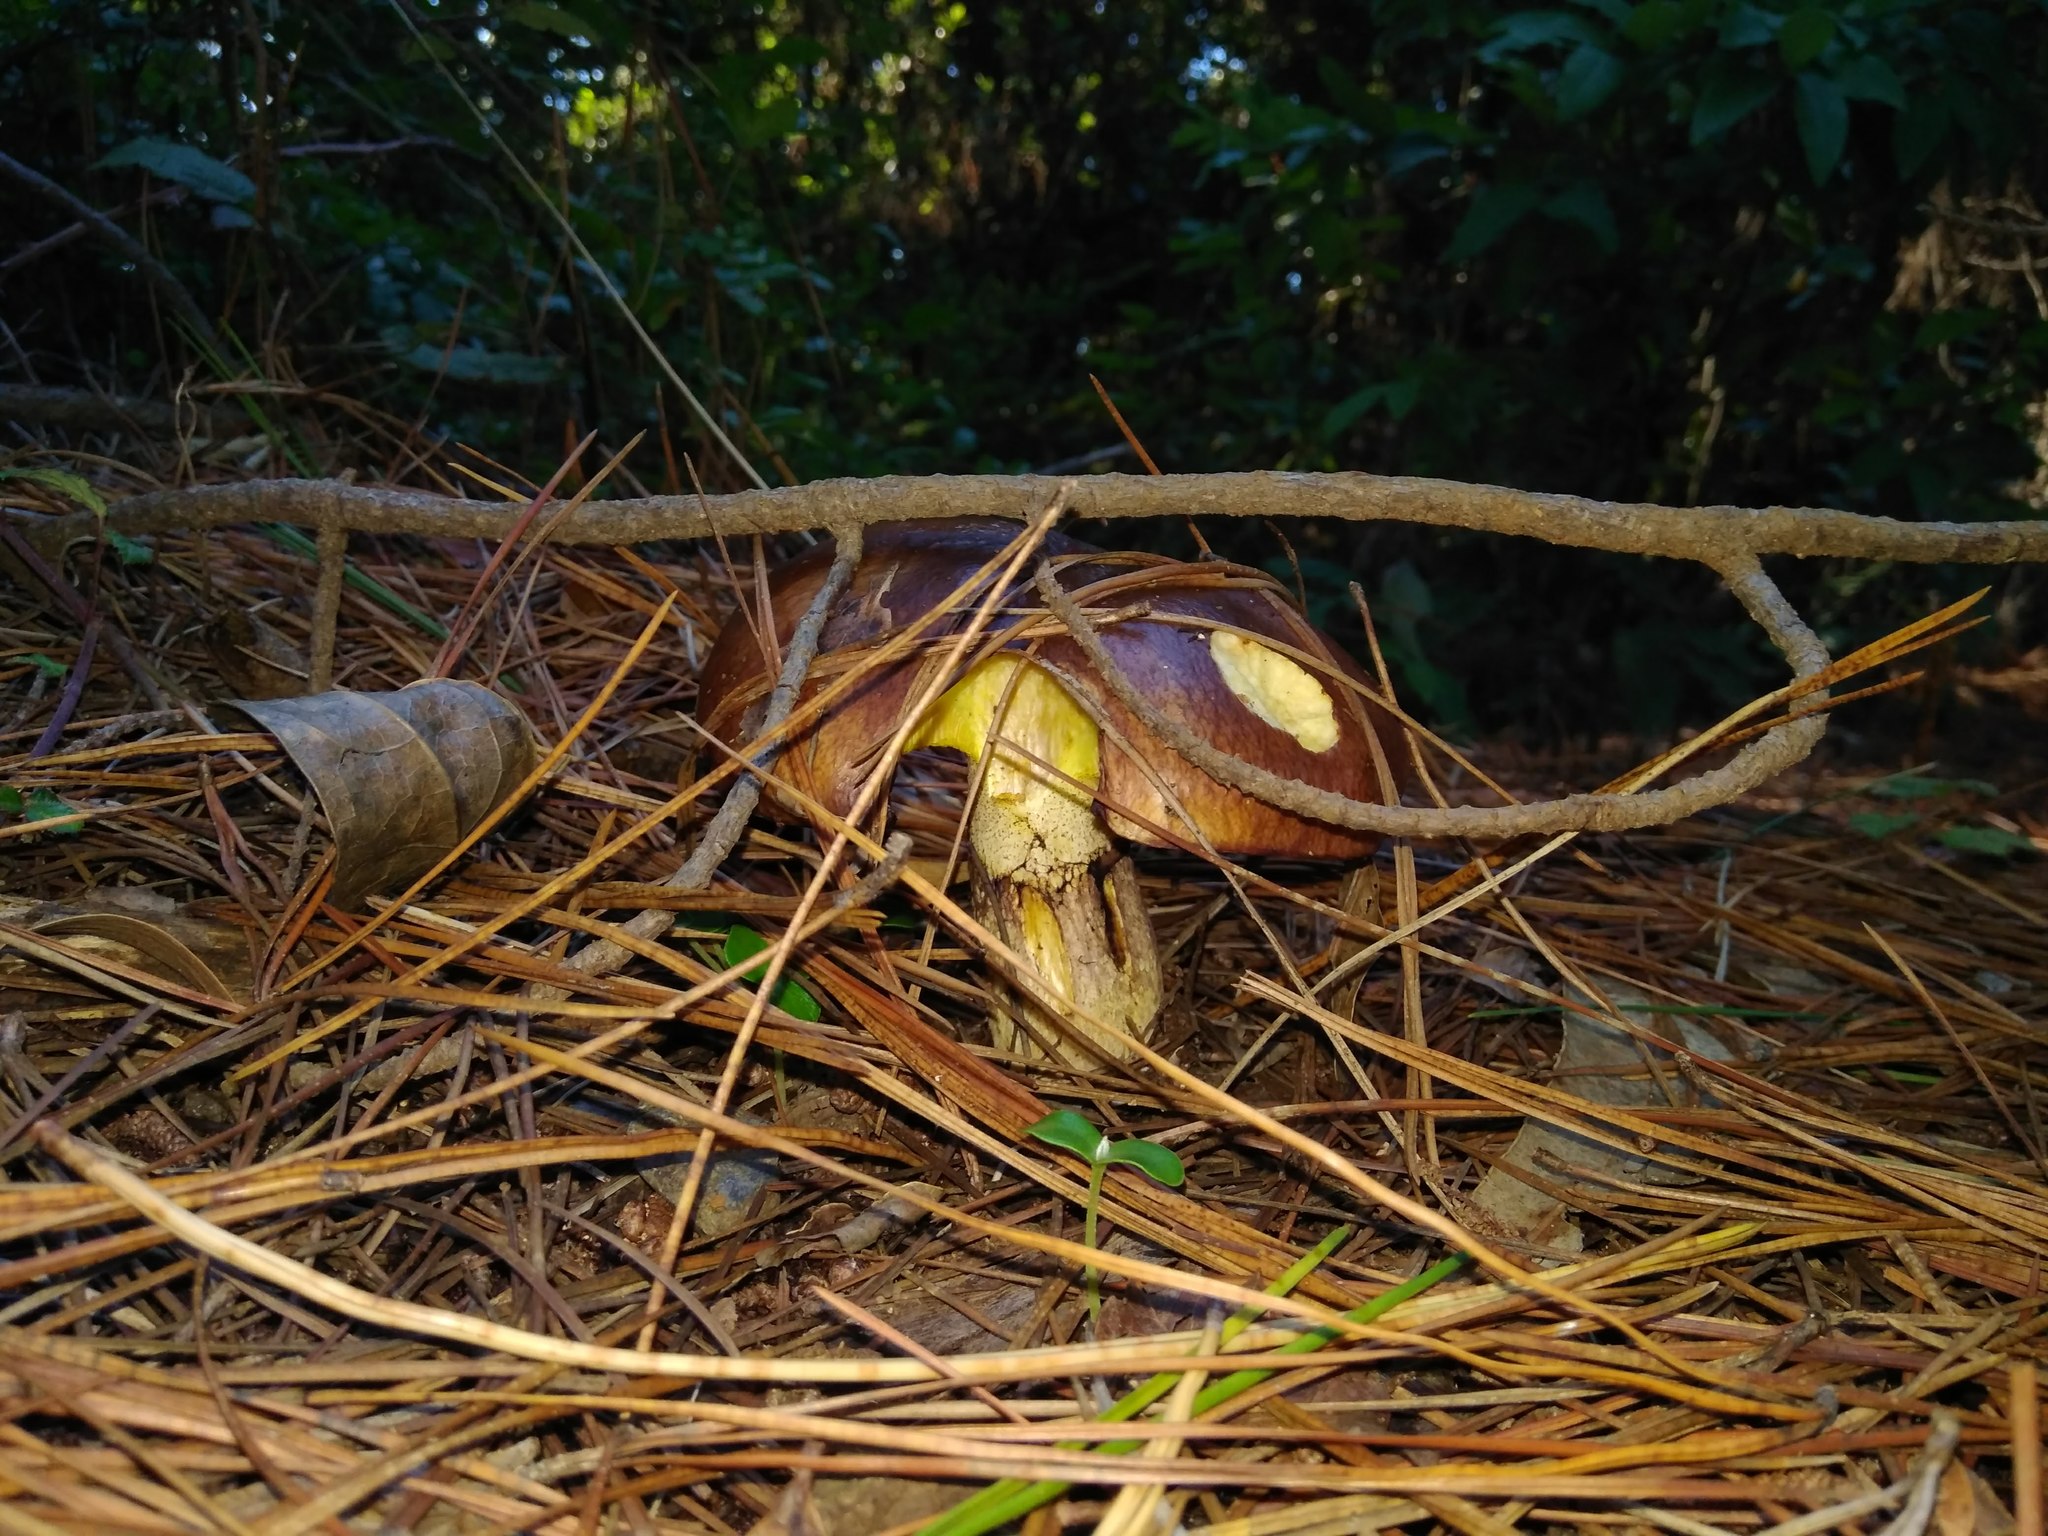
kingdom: Fungi
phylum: Basidiomycota
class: Agaricomycetes
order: Boletales
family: Suillaceae
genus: Suillus
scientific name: Suillus luteus
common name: Slippery jack
